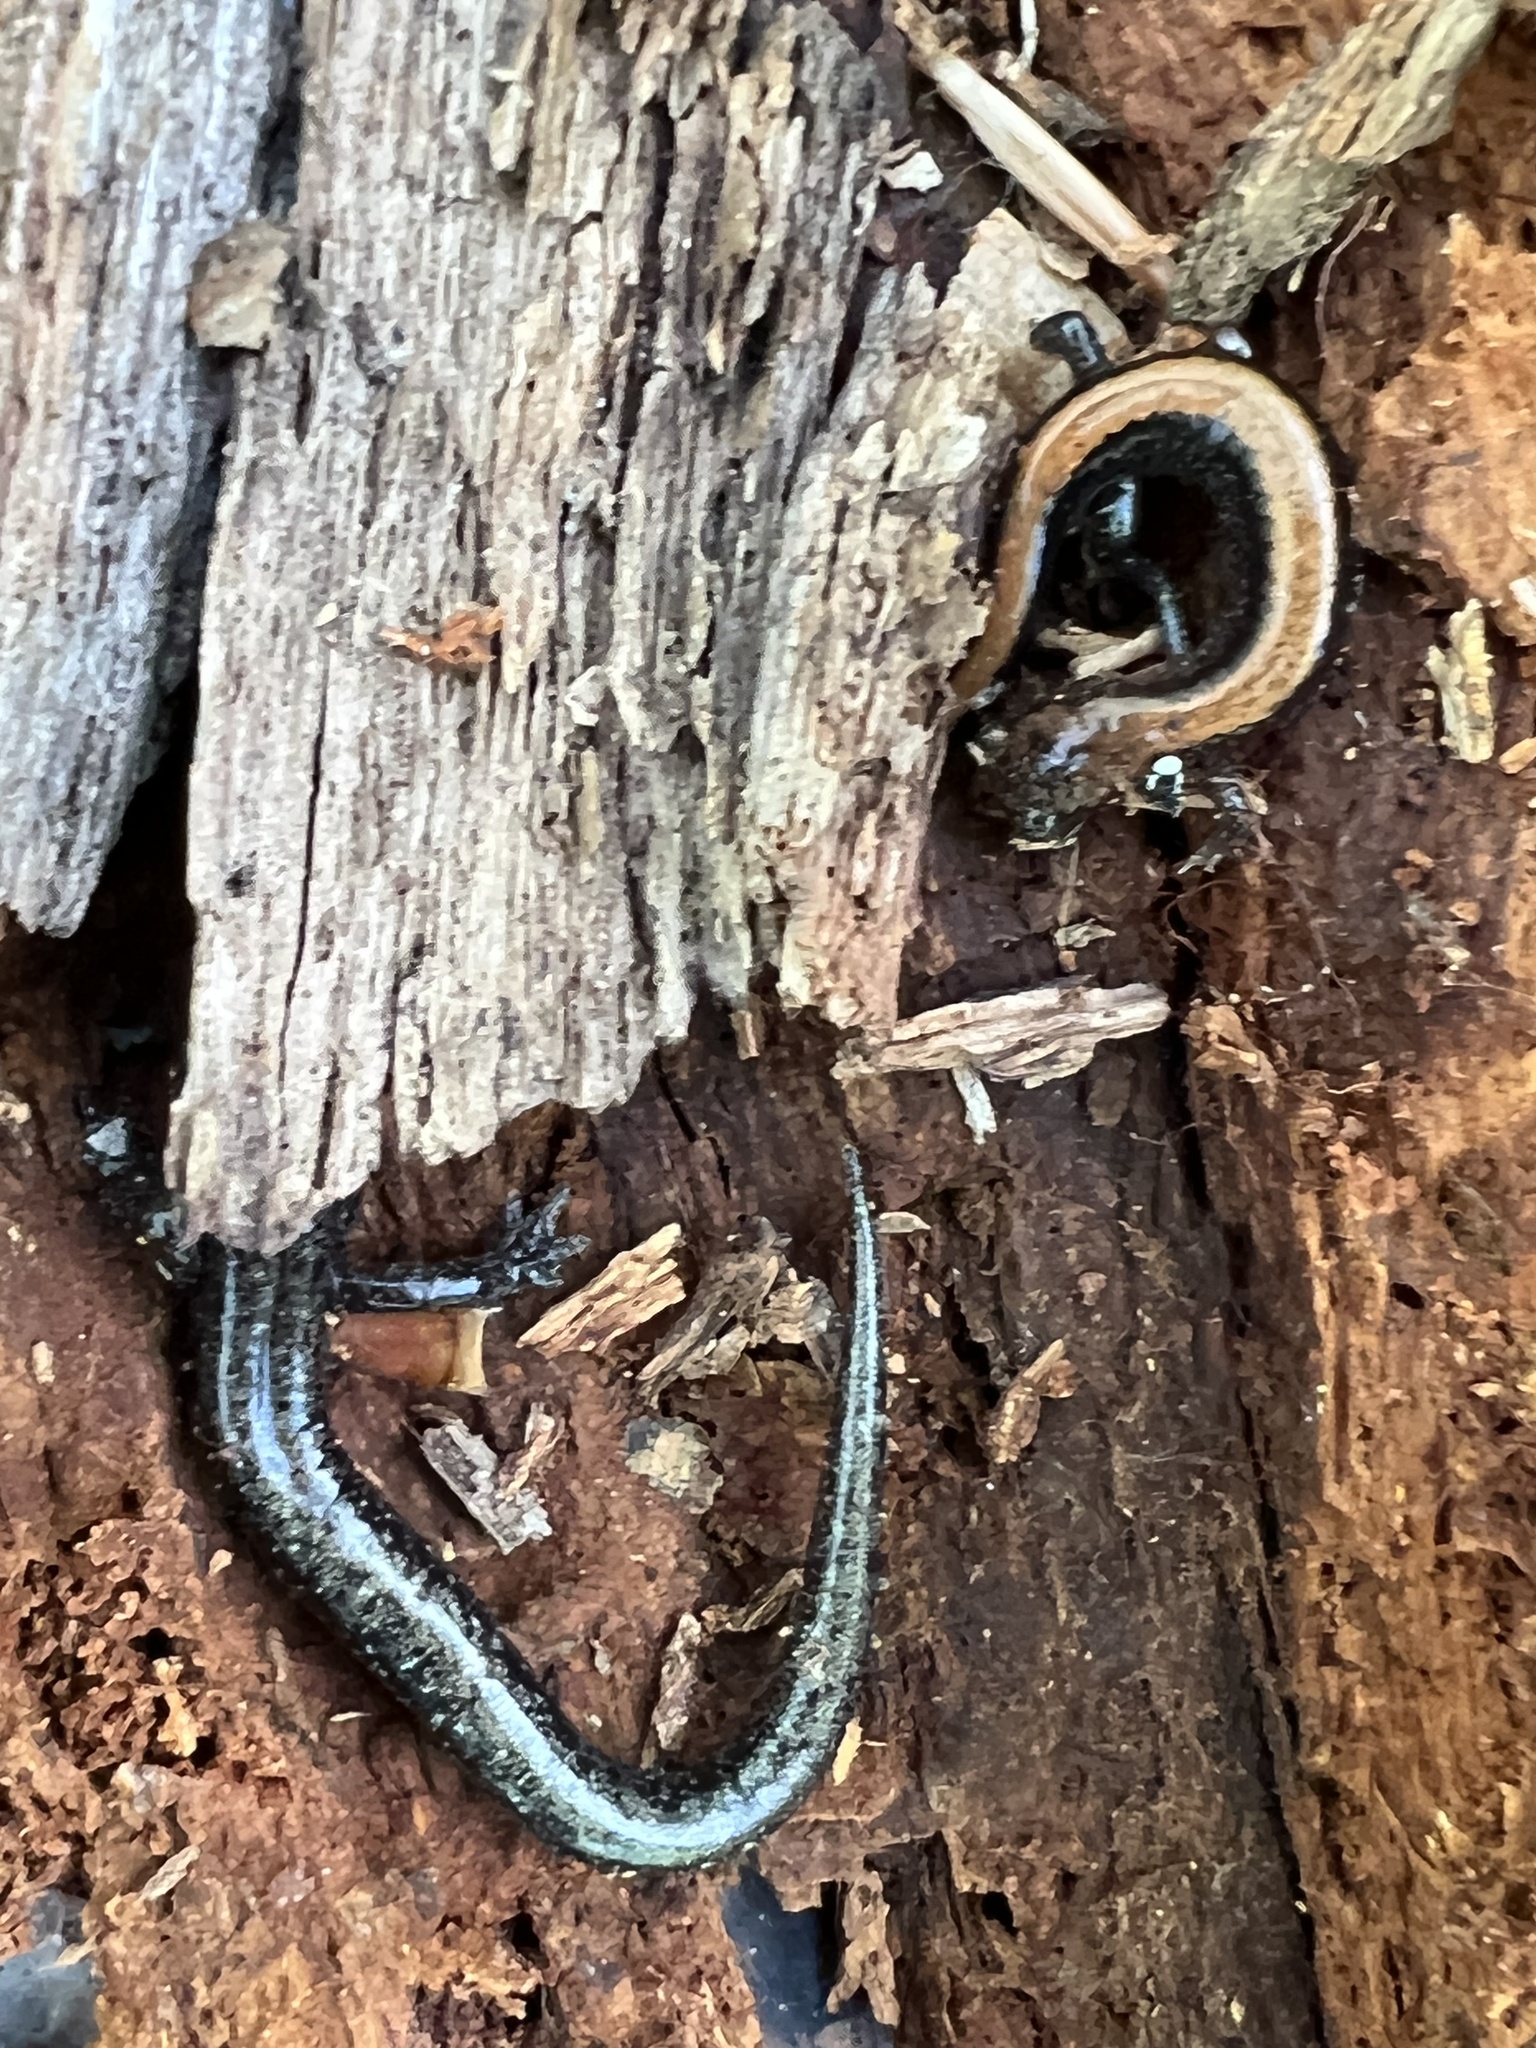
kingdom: Animalia
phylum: Chordata
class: Amphibia
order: Caudata
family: Plethodontidae
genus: Plethodon
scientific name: Plethodon cinereus
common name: Redback salamander
